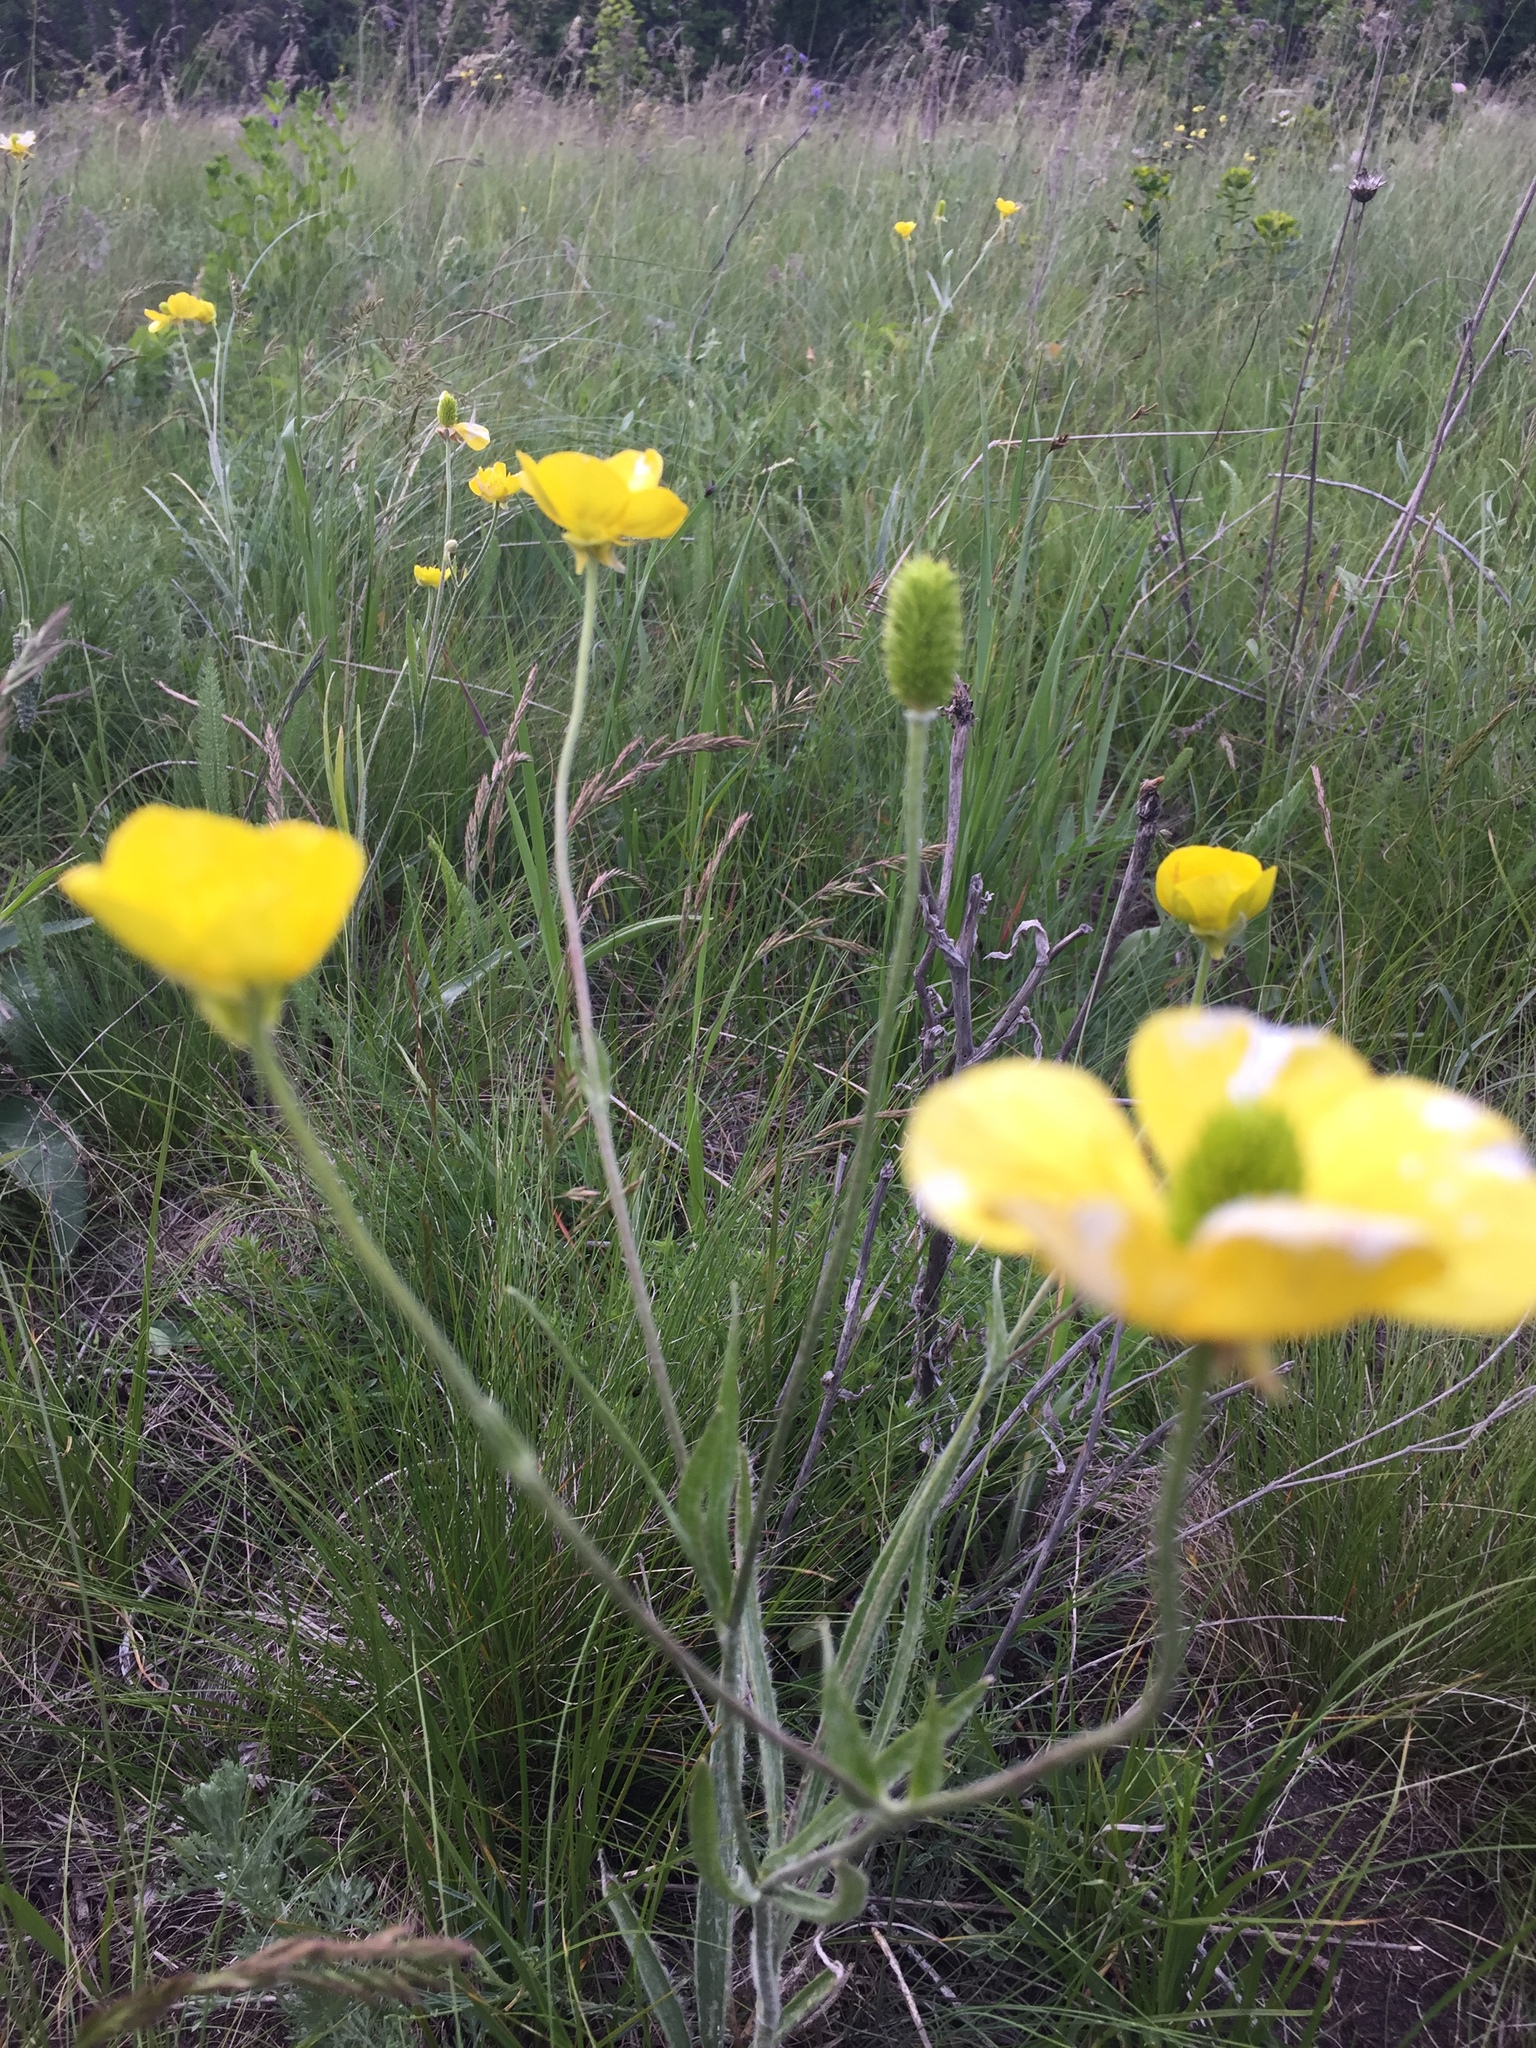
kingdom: Plantae
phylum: Tracheophyta
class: Magnoliopsida
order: Ranunculales
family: Ranunculaceae
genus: Ranunculus
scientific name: Ranunculus illyricus
